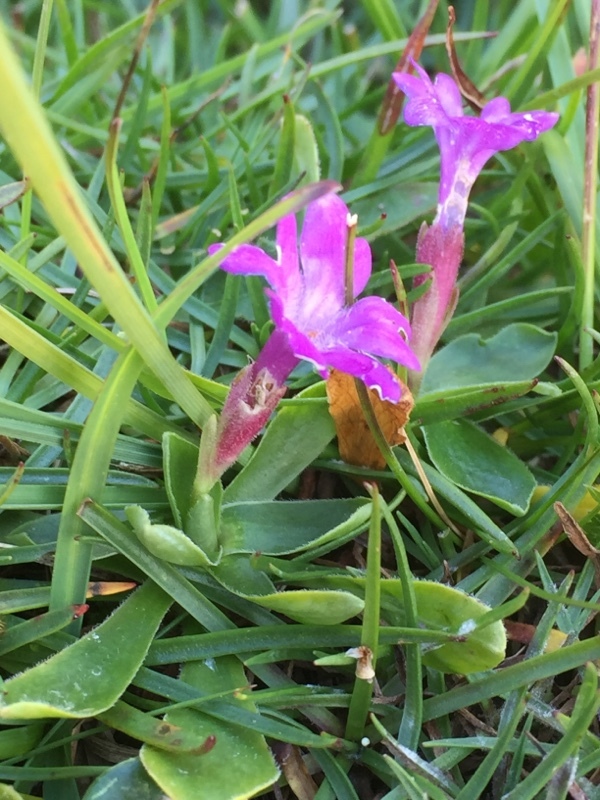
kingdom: Plantae
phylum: Tracheophyta
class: Magnoliopsida
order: Ericales
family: Primulaceae
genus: Primula
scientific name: Primula integrifolia
